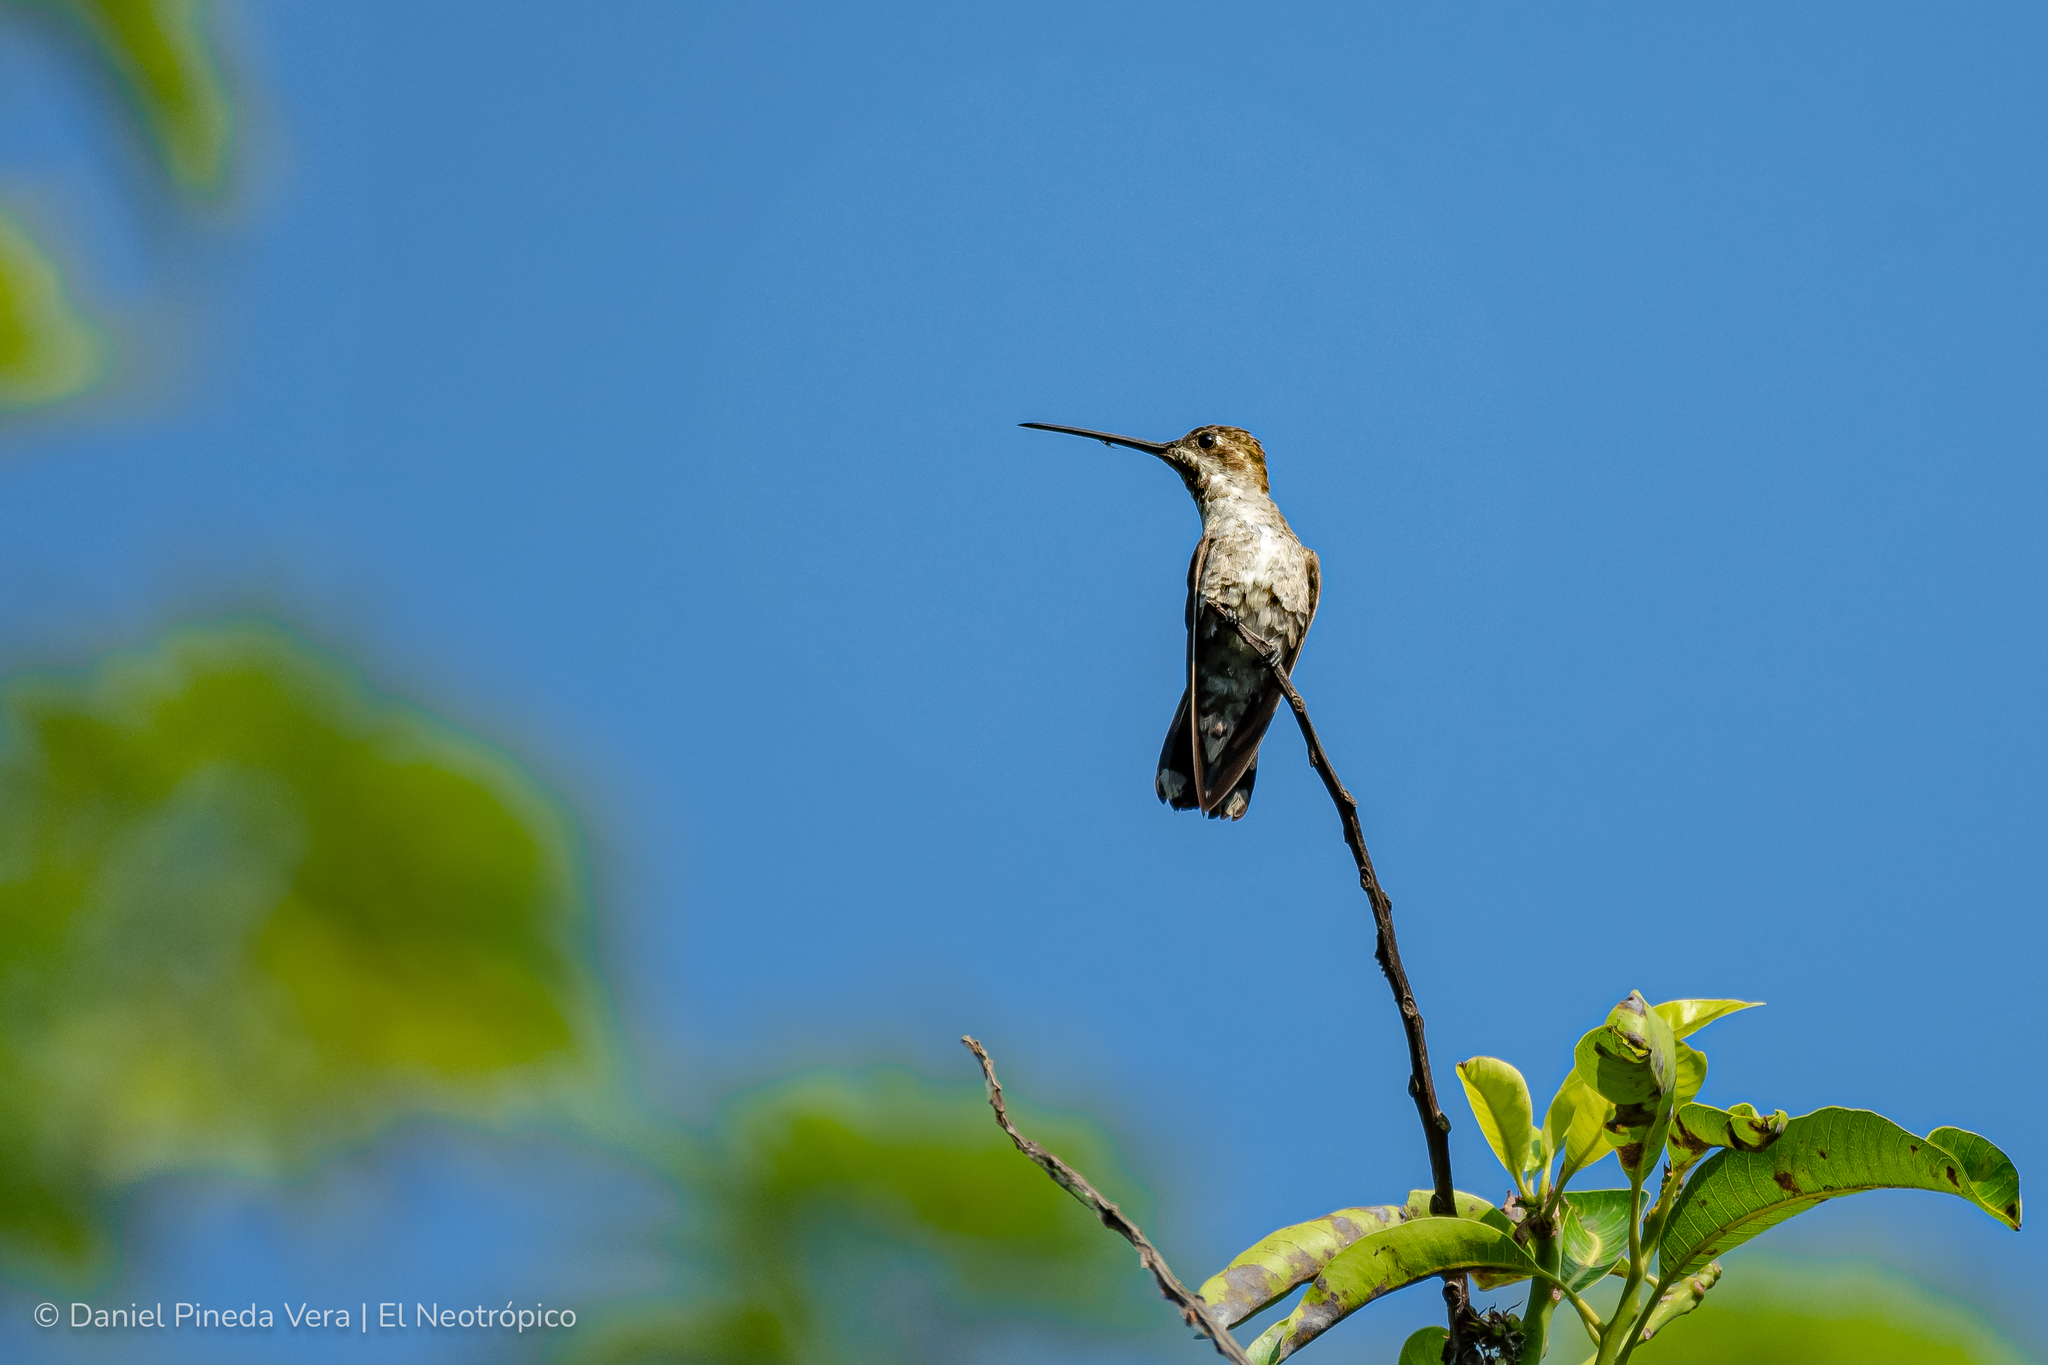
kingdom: Animalia
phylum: Chordata
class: Aves
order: Apodiformes
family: Trochilidae
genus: Heliomaster
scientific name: Heliomaster constantii
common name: Plain-capped starthroat
